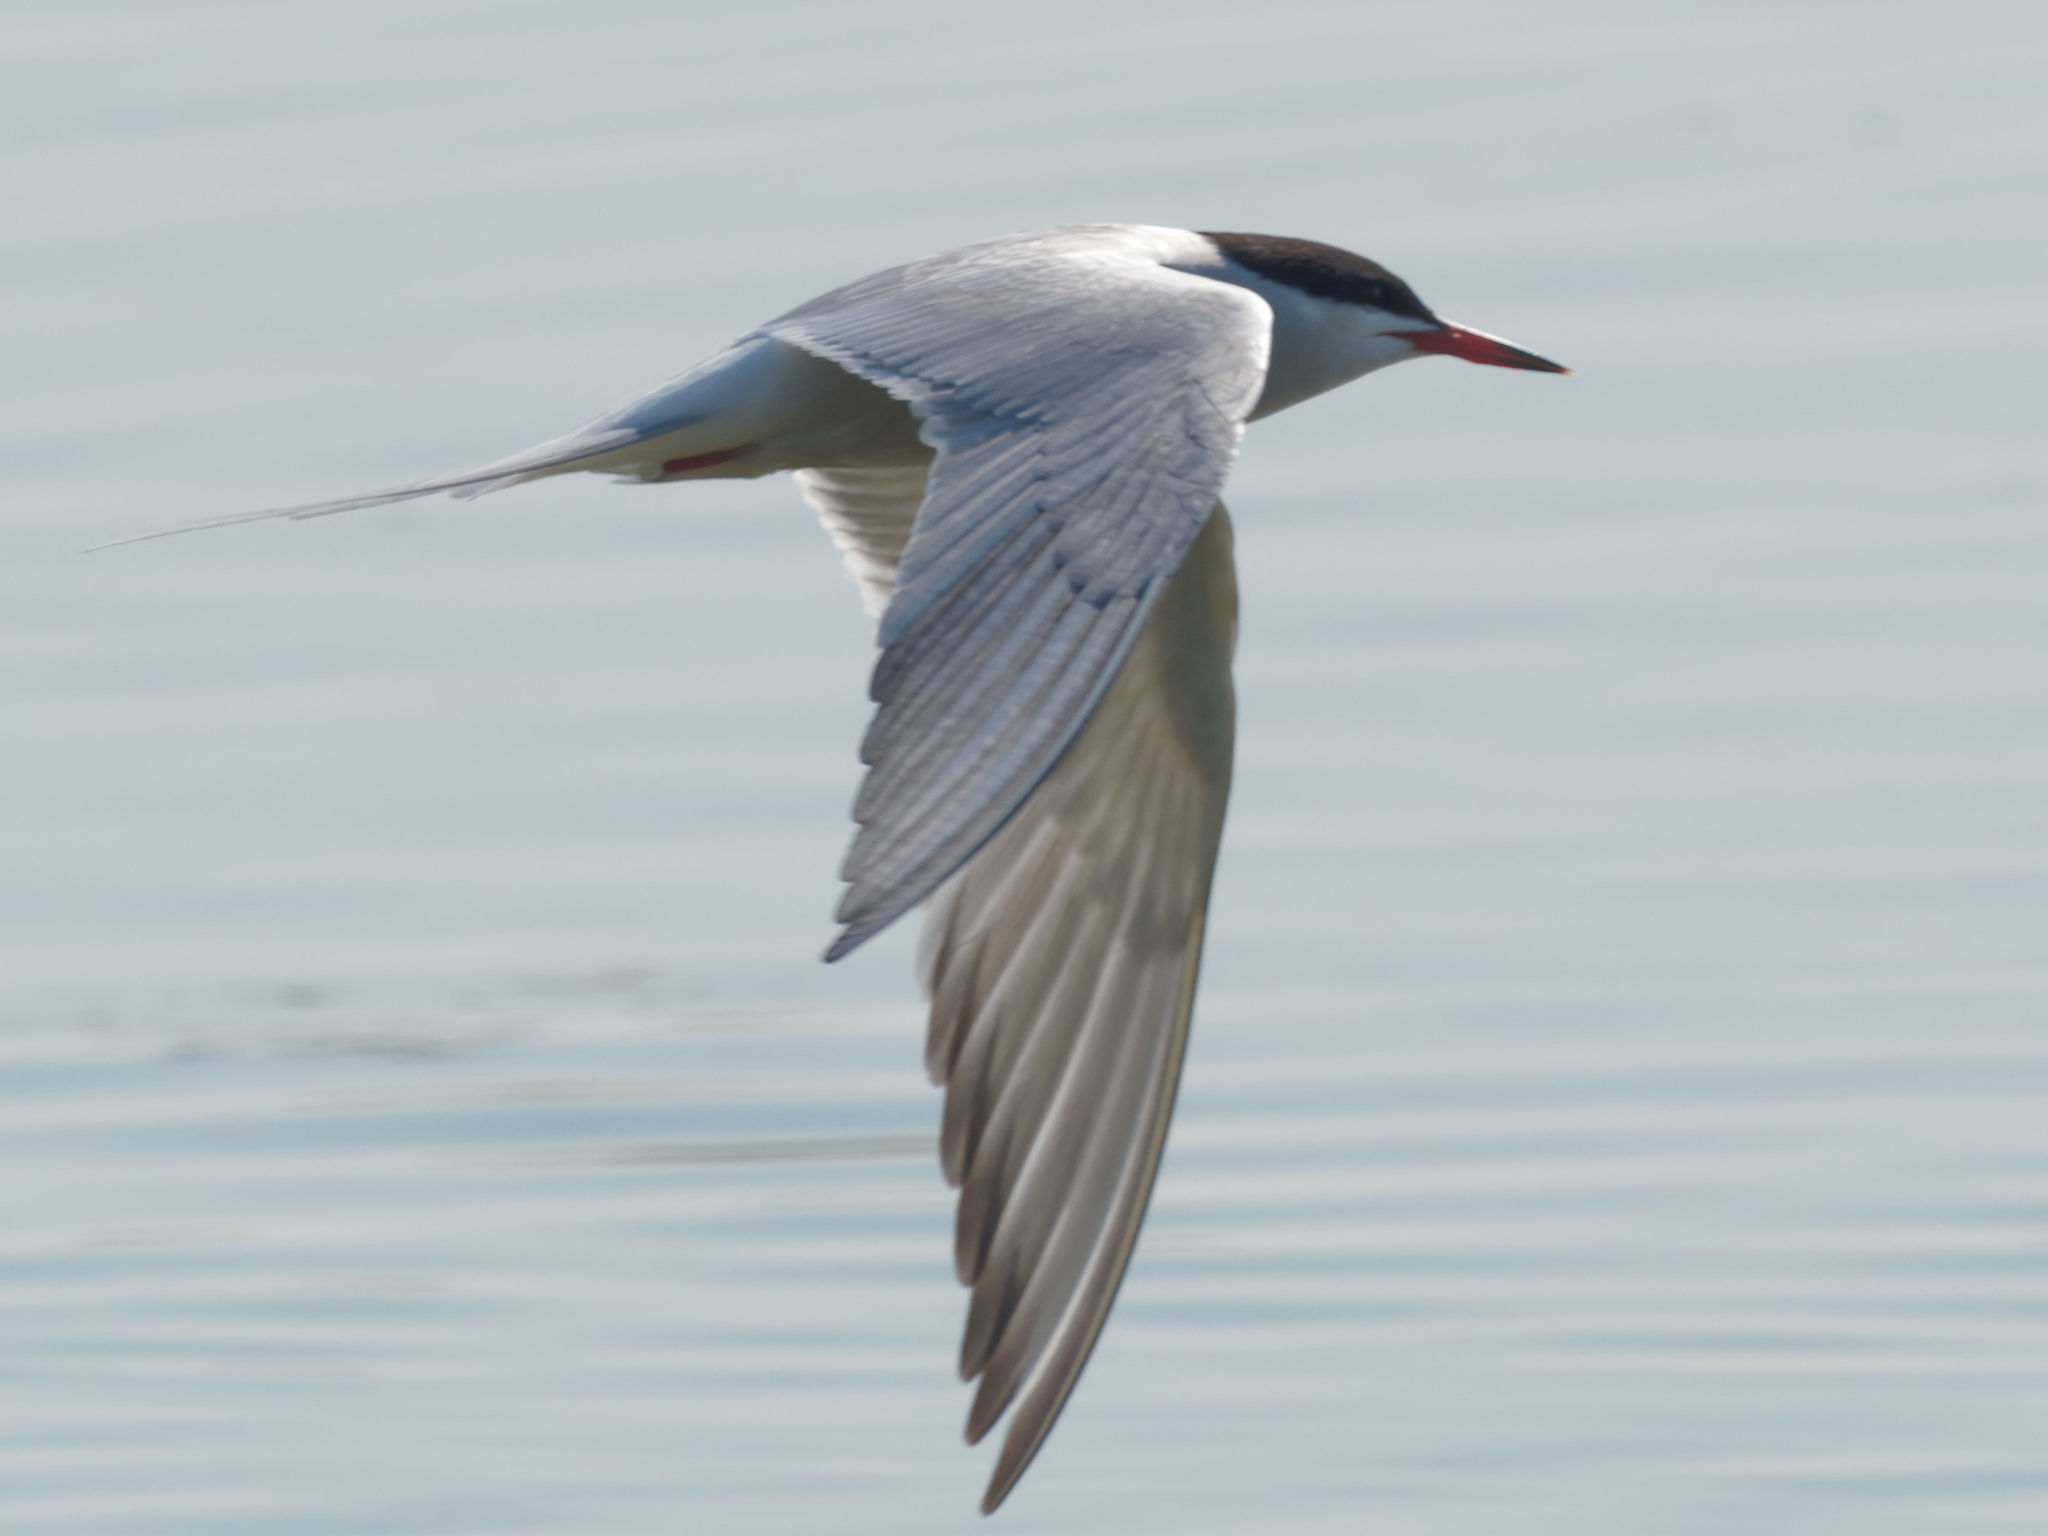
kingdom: Animalia
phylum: Chordata
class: Aves
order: Charadriiformes
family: Laridae
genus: Sterna
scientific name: Sterna hirundo
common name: Common tern
